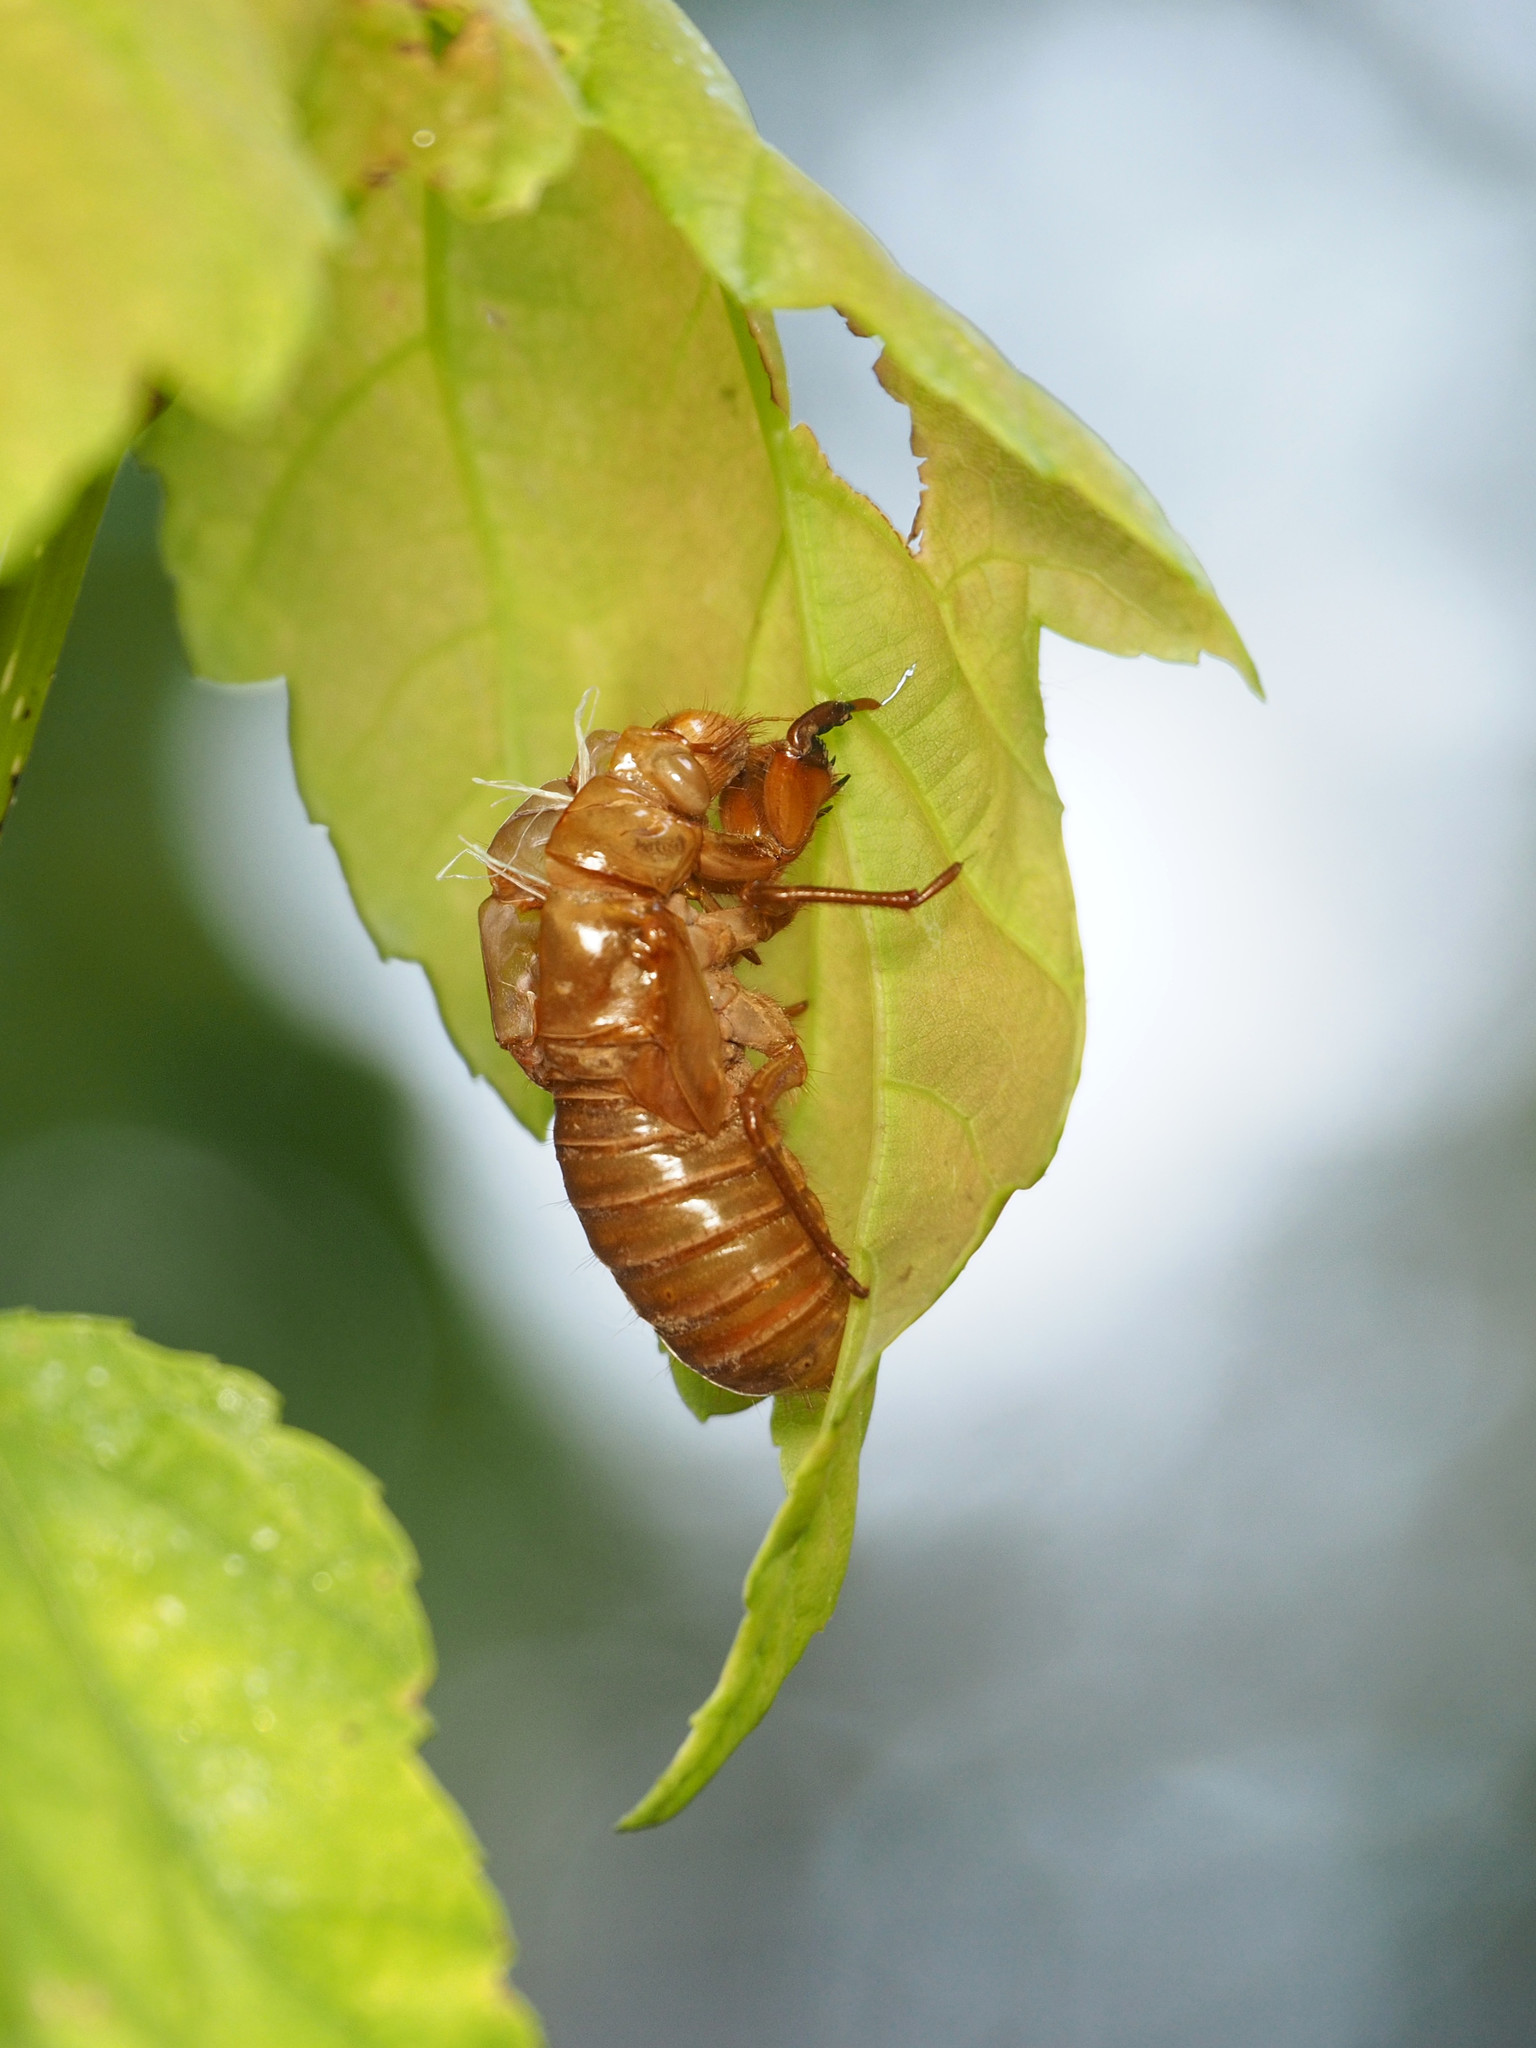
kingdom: Animalia
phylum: Arthropoda
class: Insecta
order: Hemiptera
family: Cicadidae
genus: Magicicada
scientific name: Magicicada
